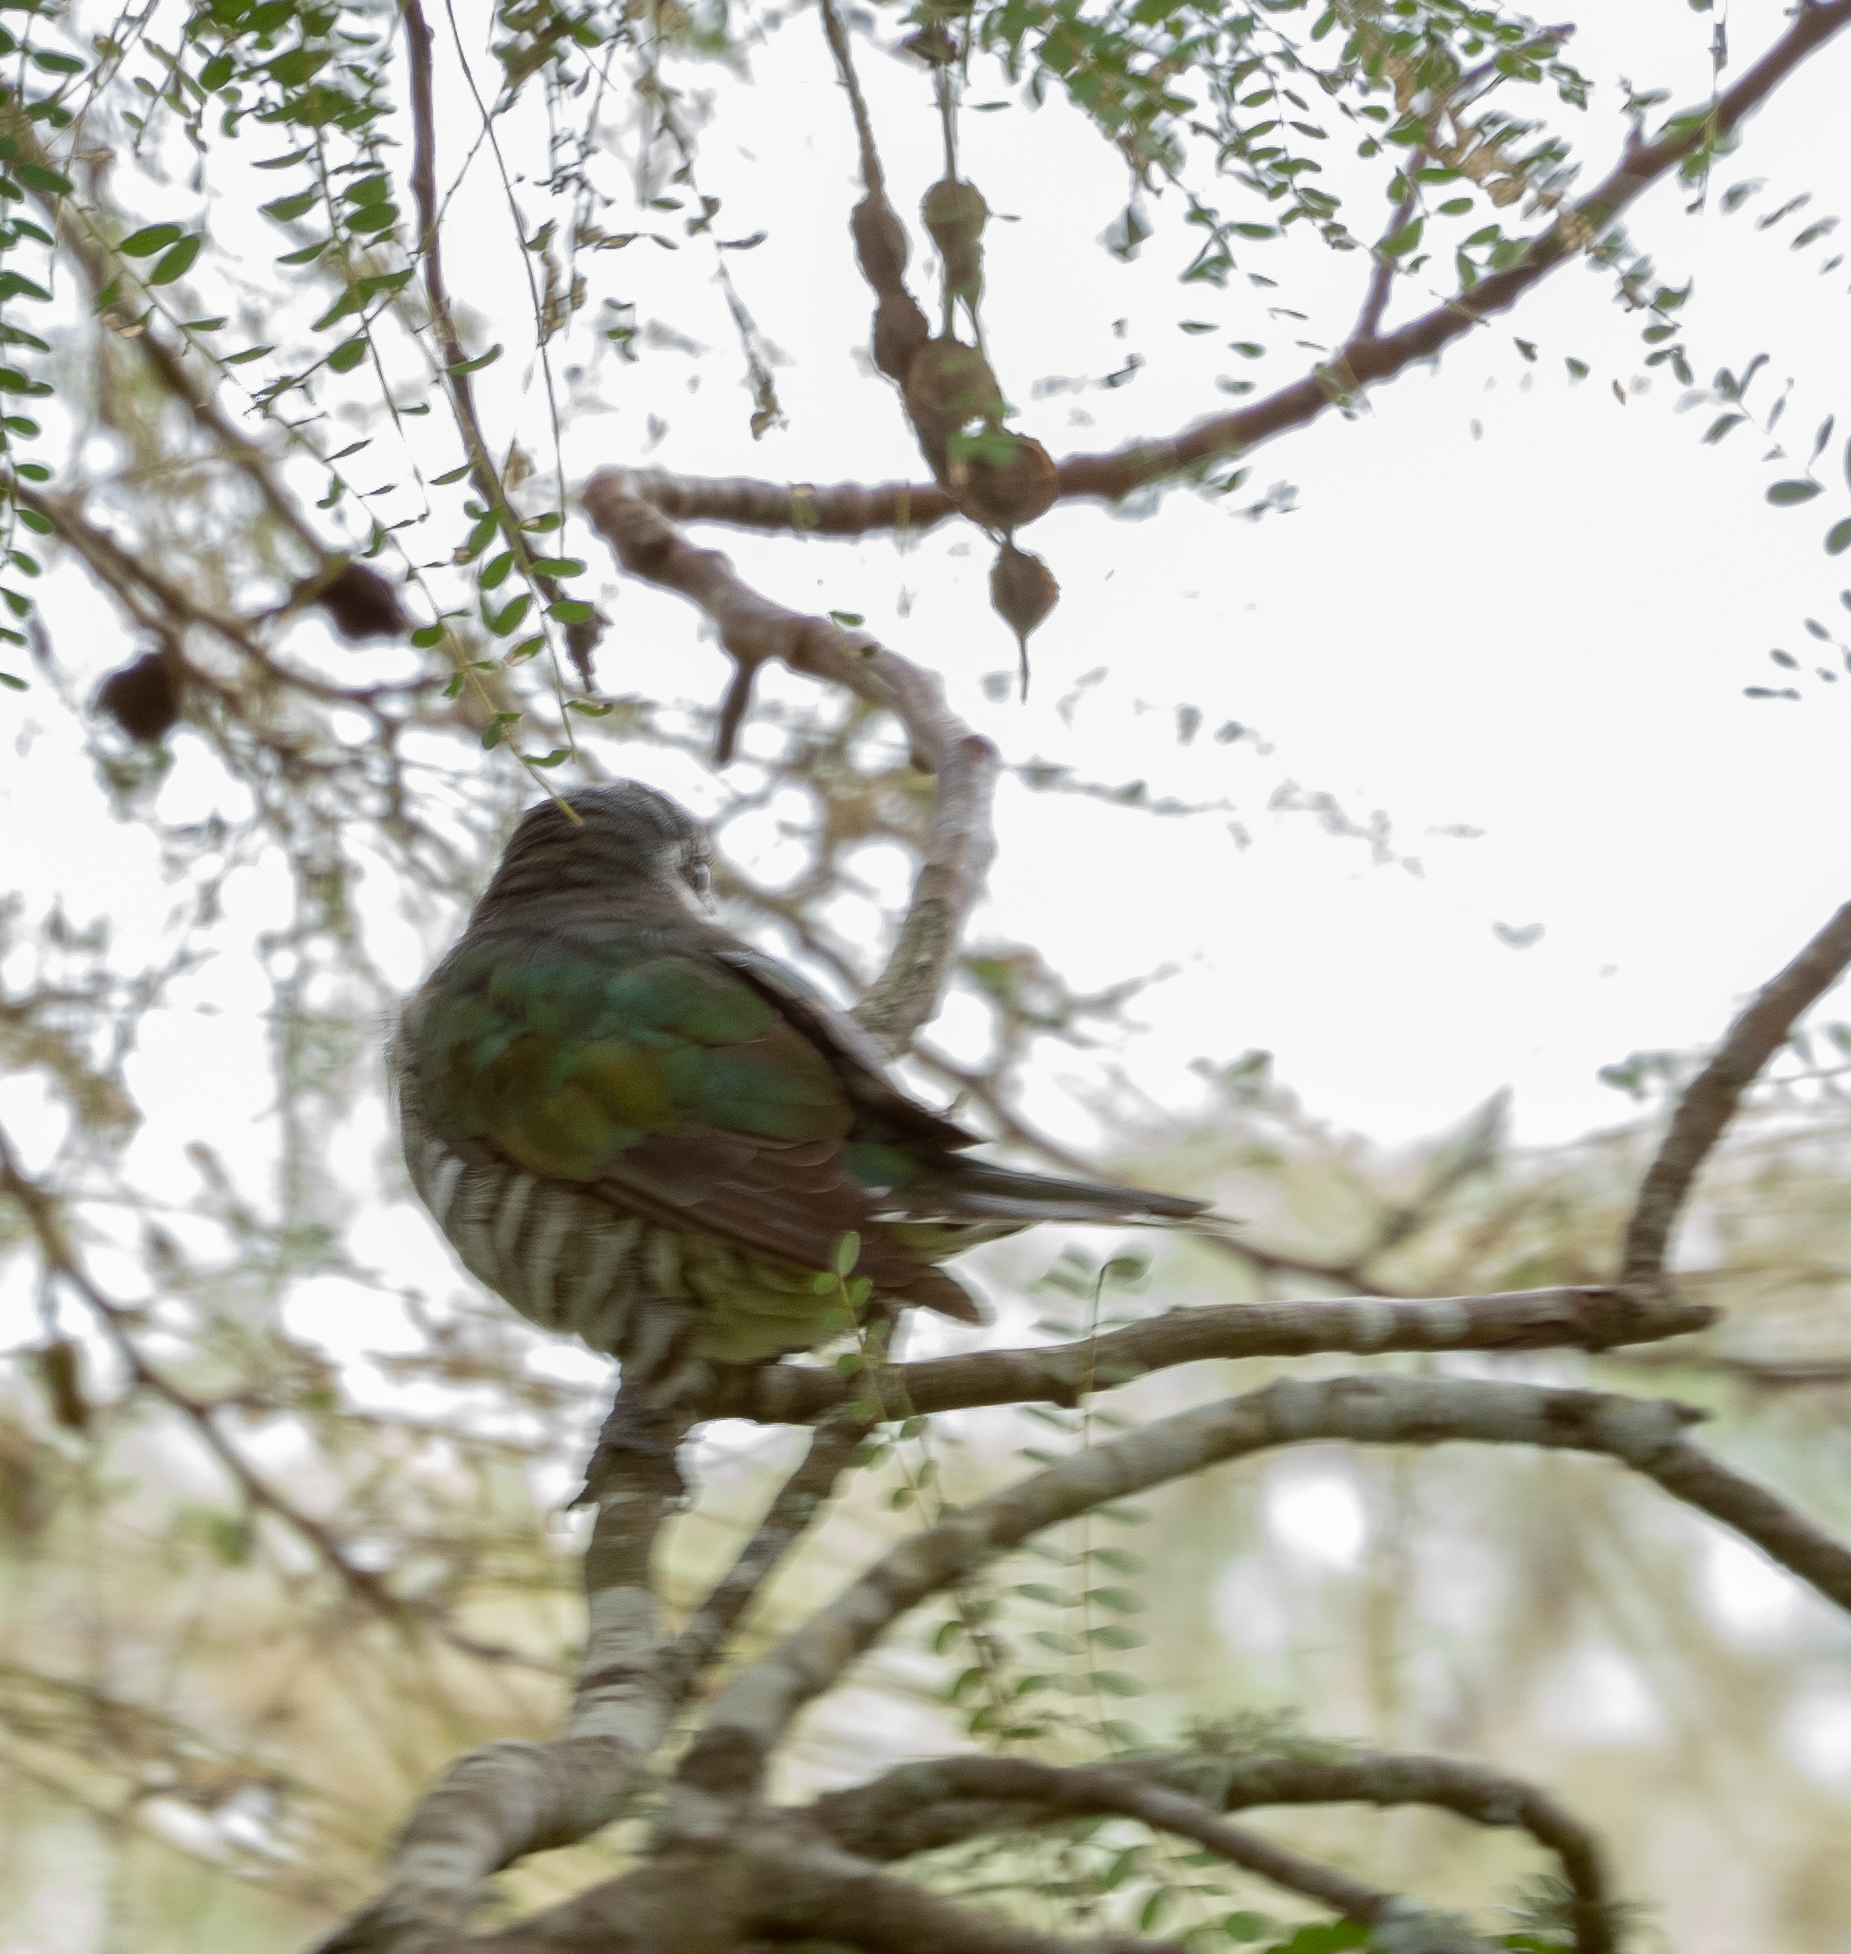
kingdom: Animalia
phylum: Chordata
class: Aves
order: Cuculiformes
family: Cuculidae
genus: Chrysococcyx
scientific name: Chrysococcyx lucidus
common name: Shining bronze cuckoo
